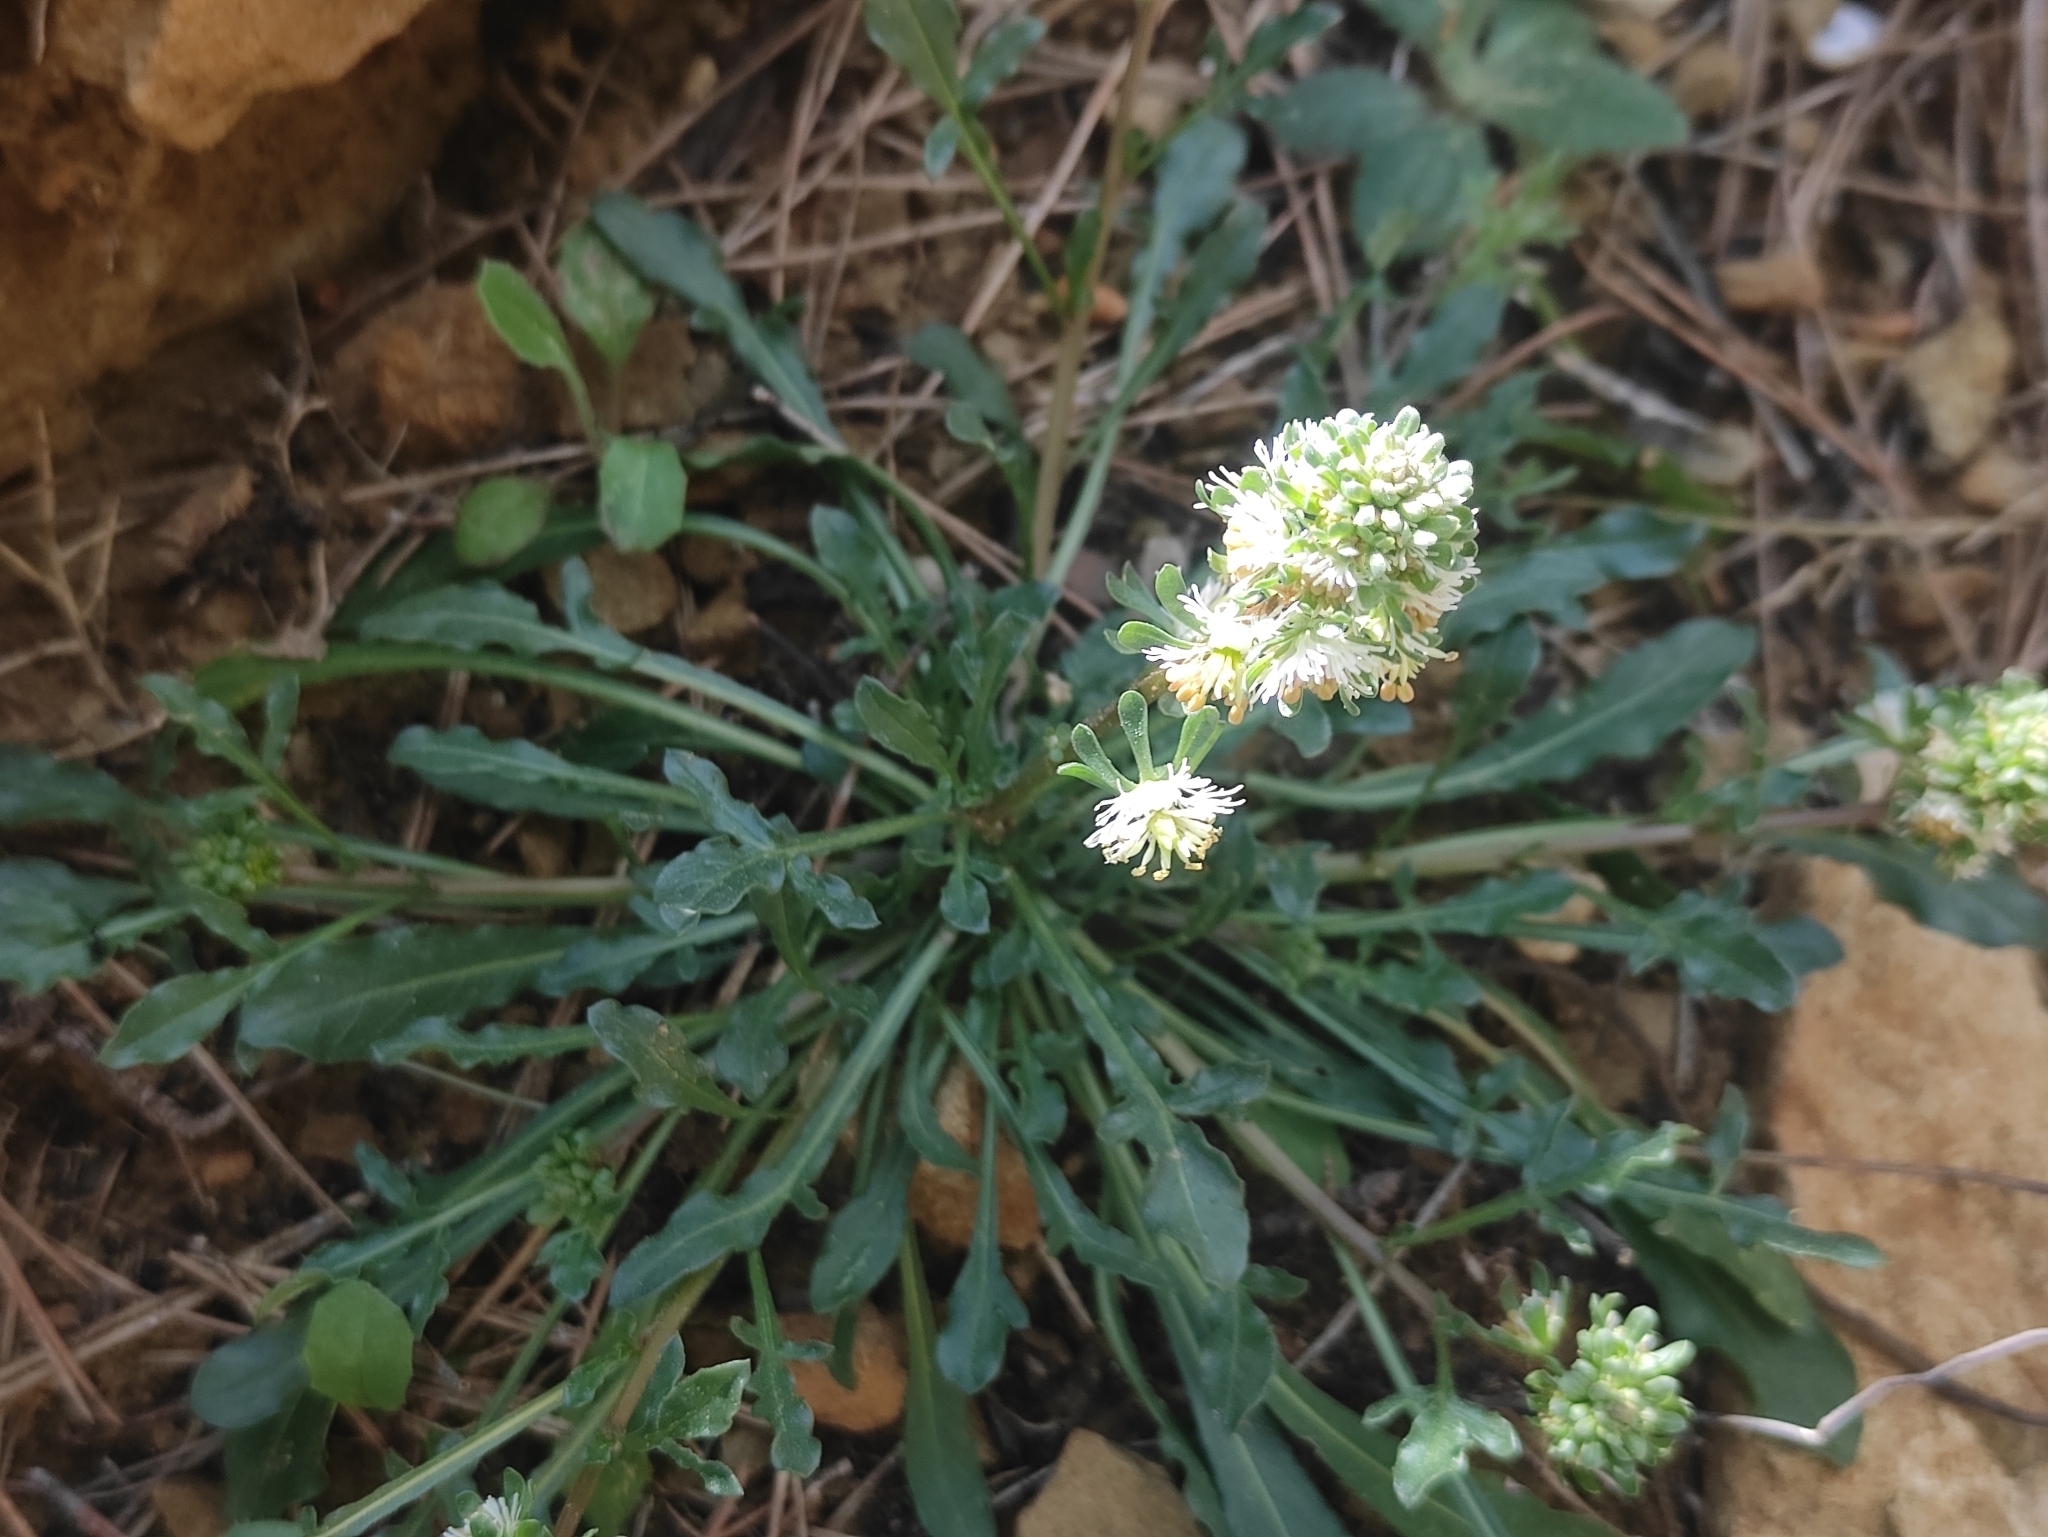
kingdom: Plantae
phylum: Tracheophyta
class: Magnoliopsida
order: Brassicales
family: Resedaceae
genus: Reseda
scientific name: Reseda phyteuma
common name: Corn mignonette
